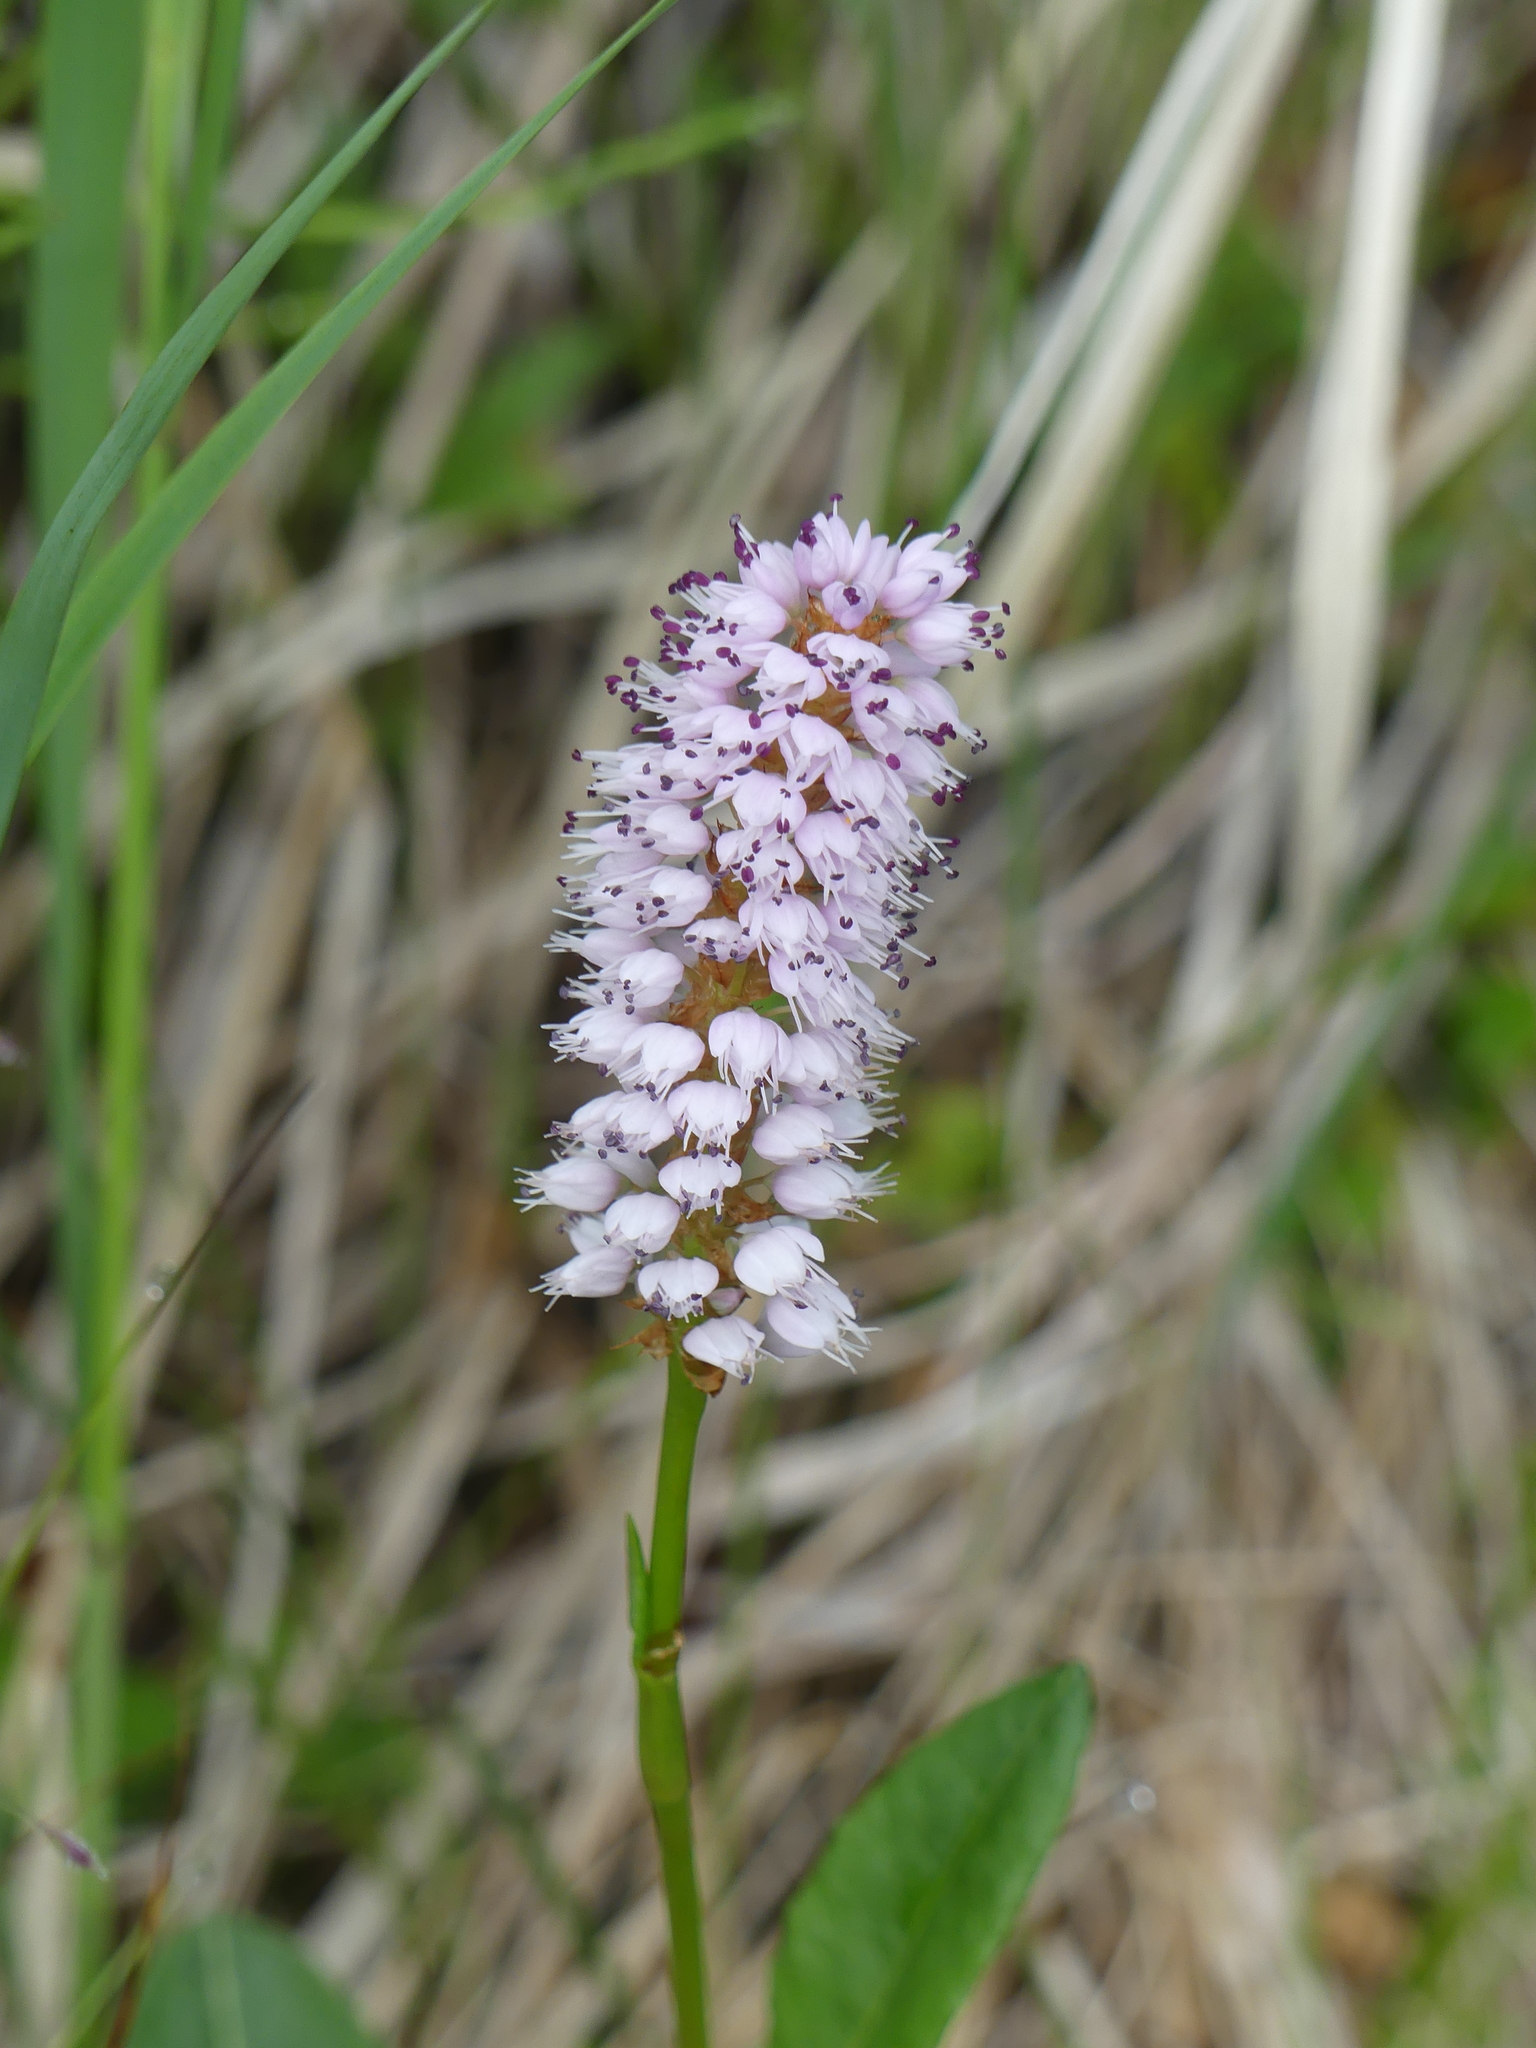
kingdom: Plantae
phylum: Tracheophyta
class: Magnoliopsida
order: Caryophyllales
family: Polygonaceae
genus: Bistorta
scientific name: Bistorta plumosa
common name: Meadow bistort
